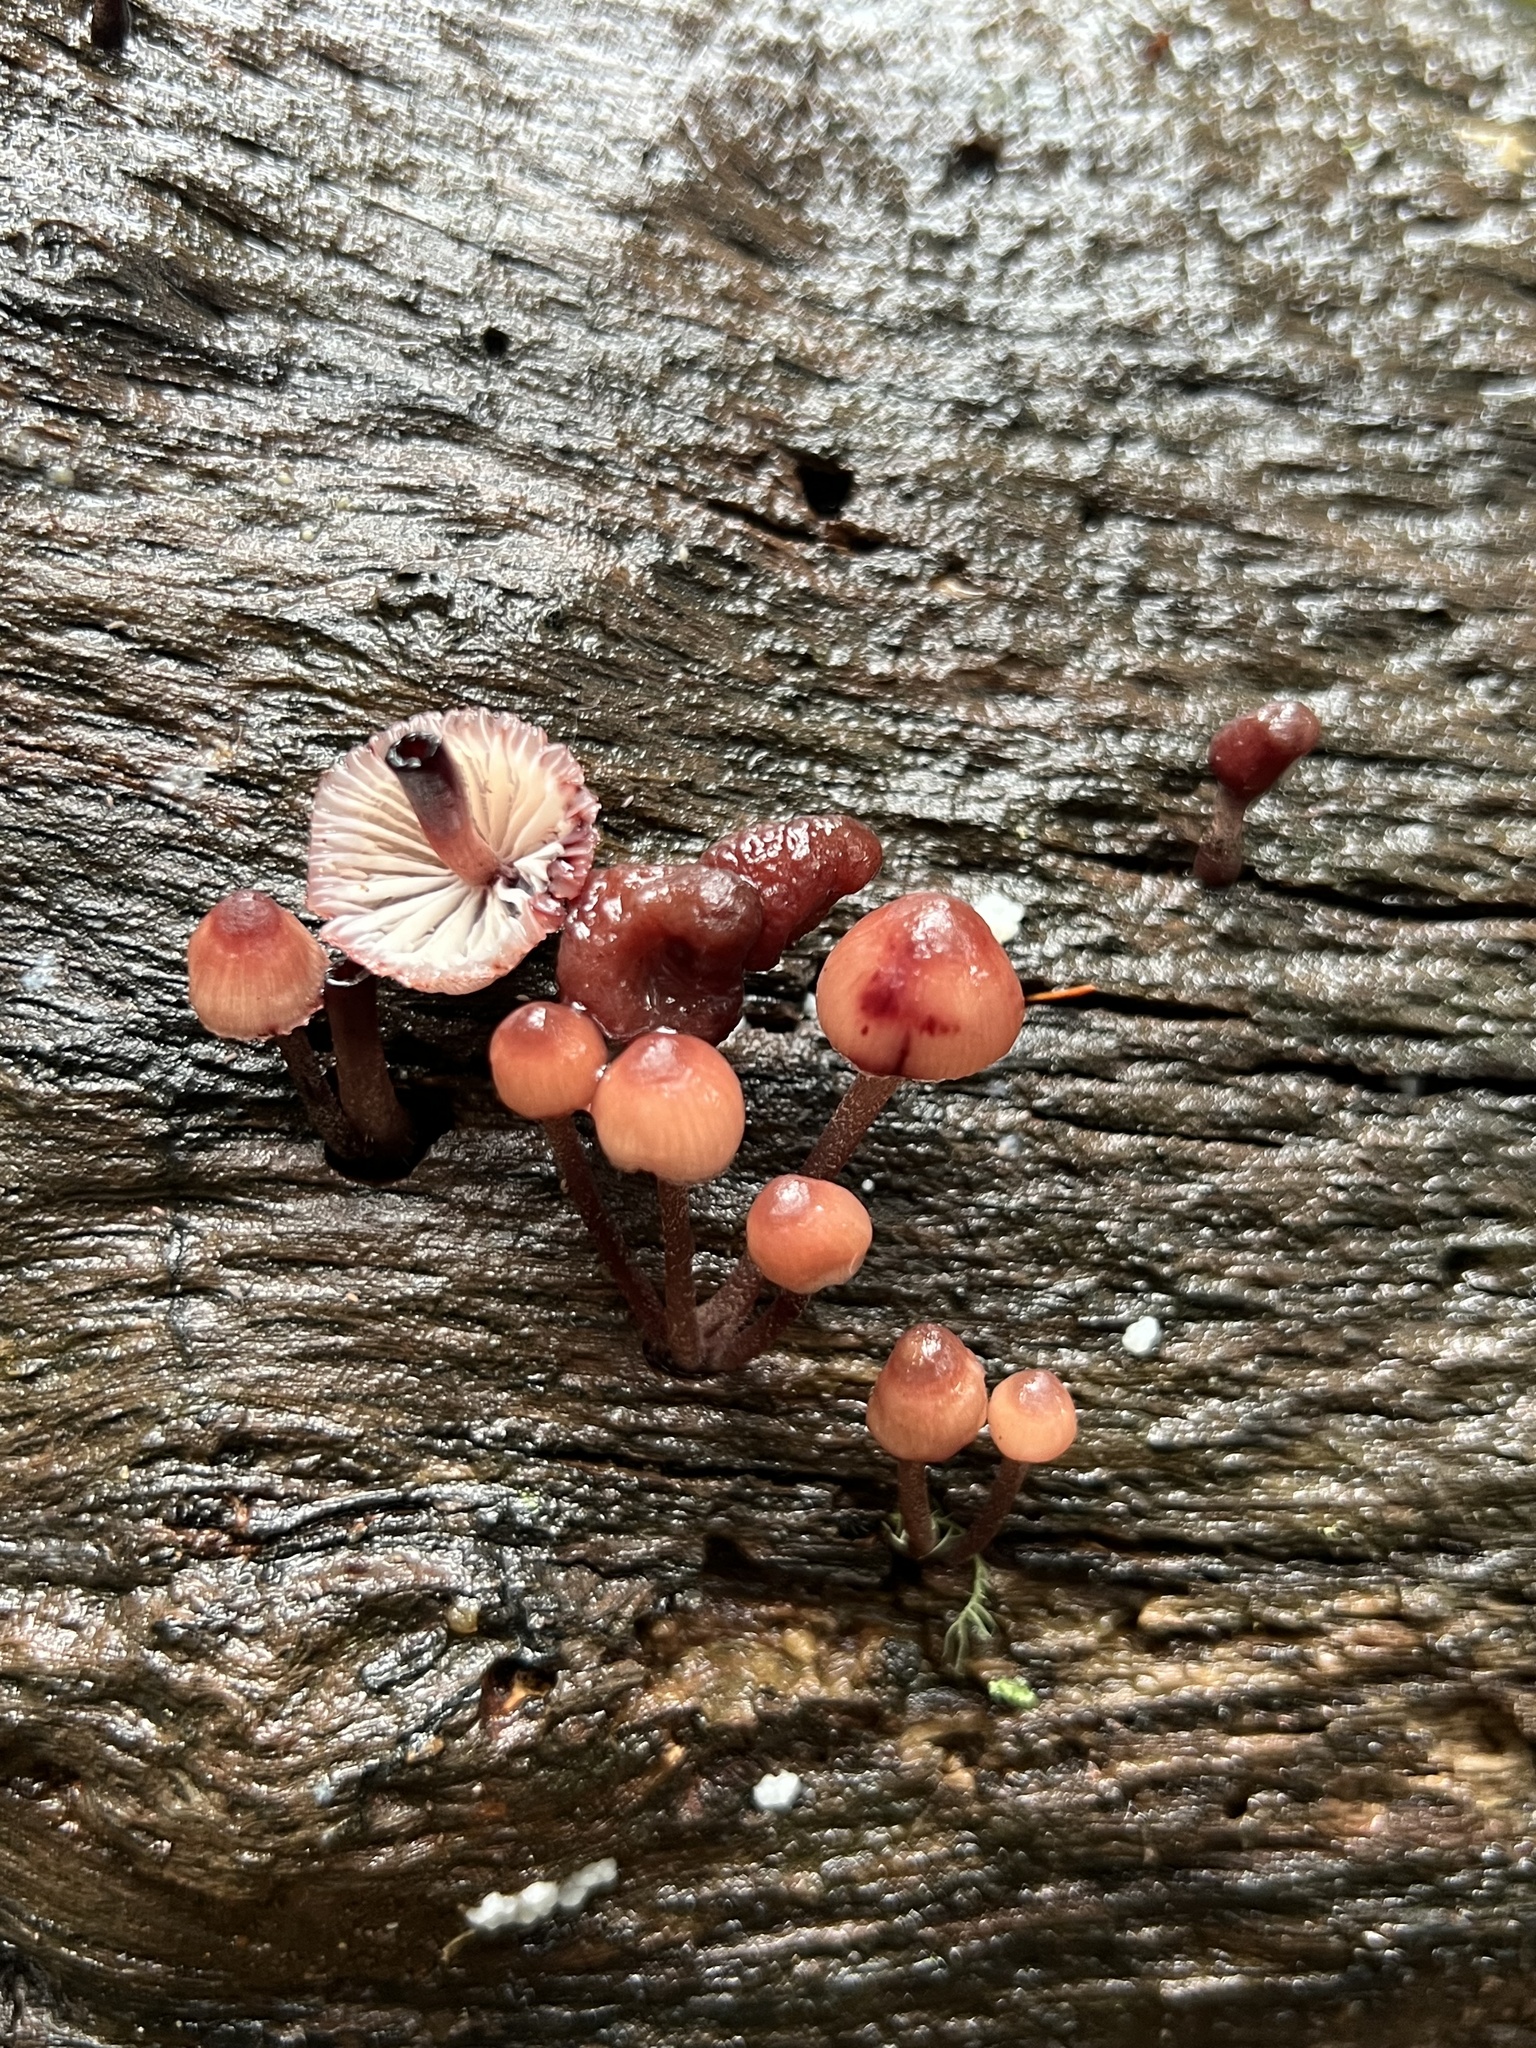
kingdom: Fungi
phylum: Basidiomycota
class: Agaricomycetes
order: Agaricales
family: Mycenaceae
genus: Mycena
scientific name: Mycena haematopus
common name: Burgundydrop bonnet
